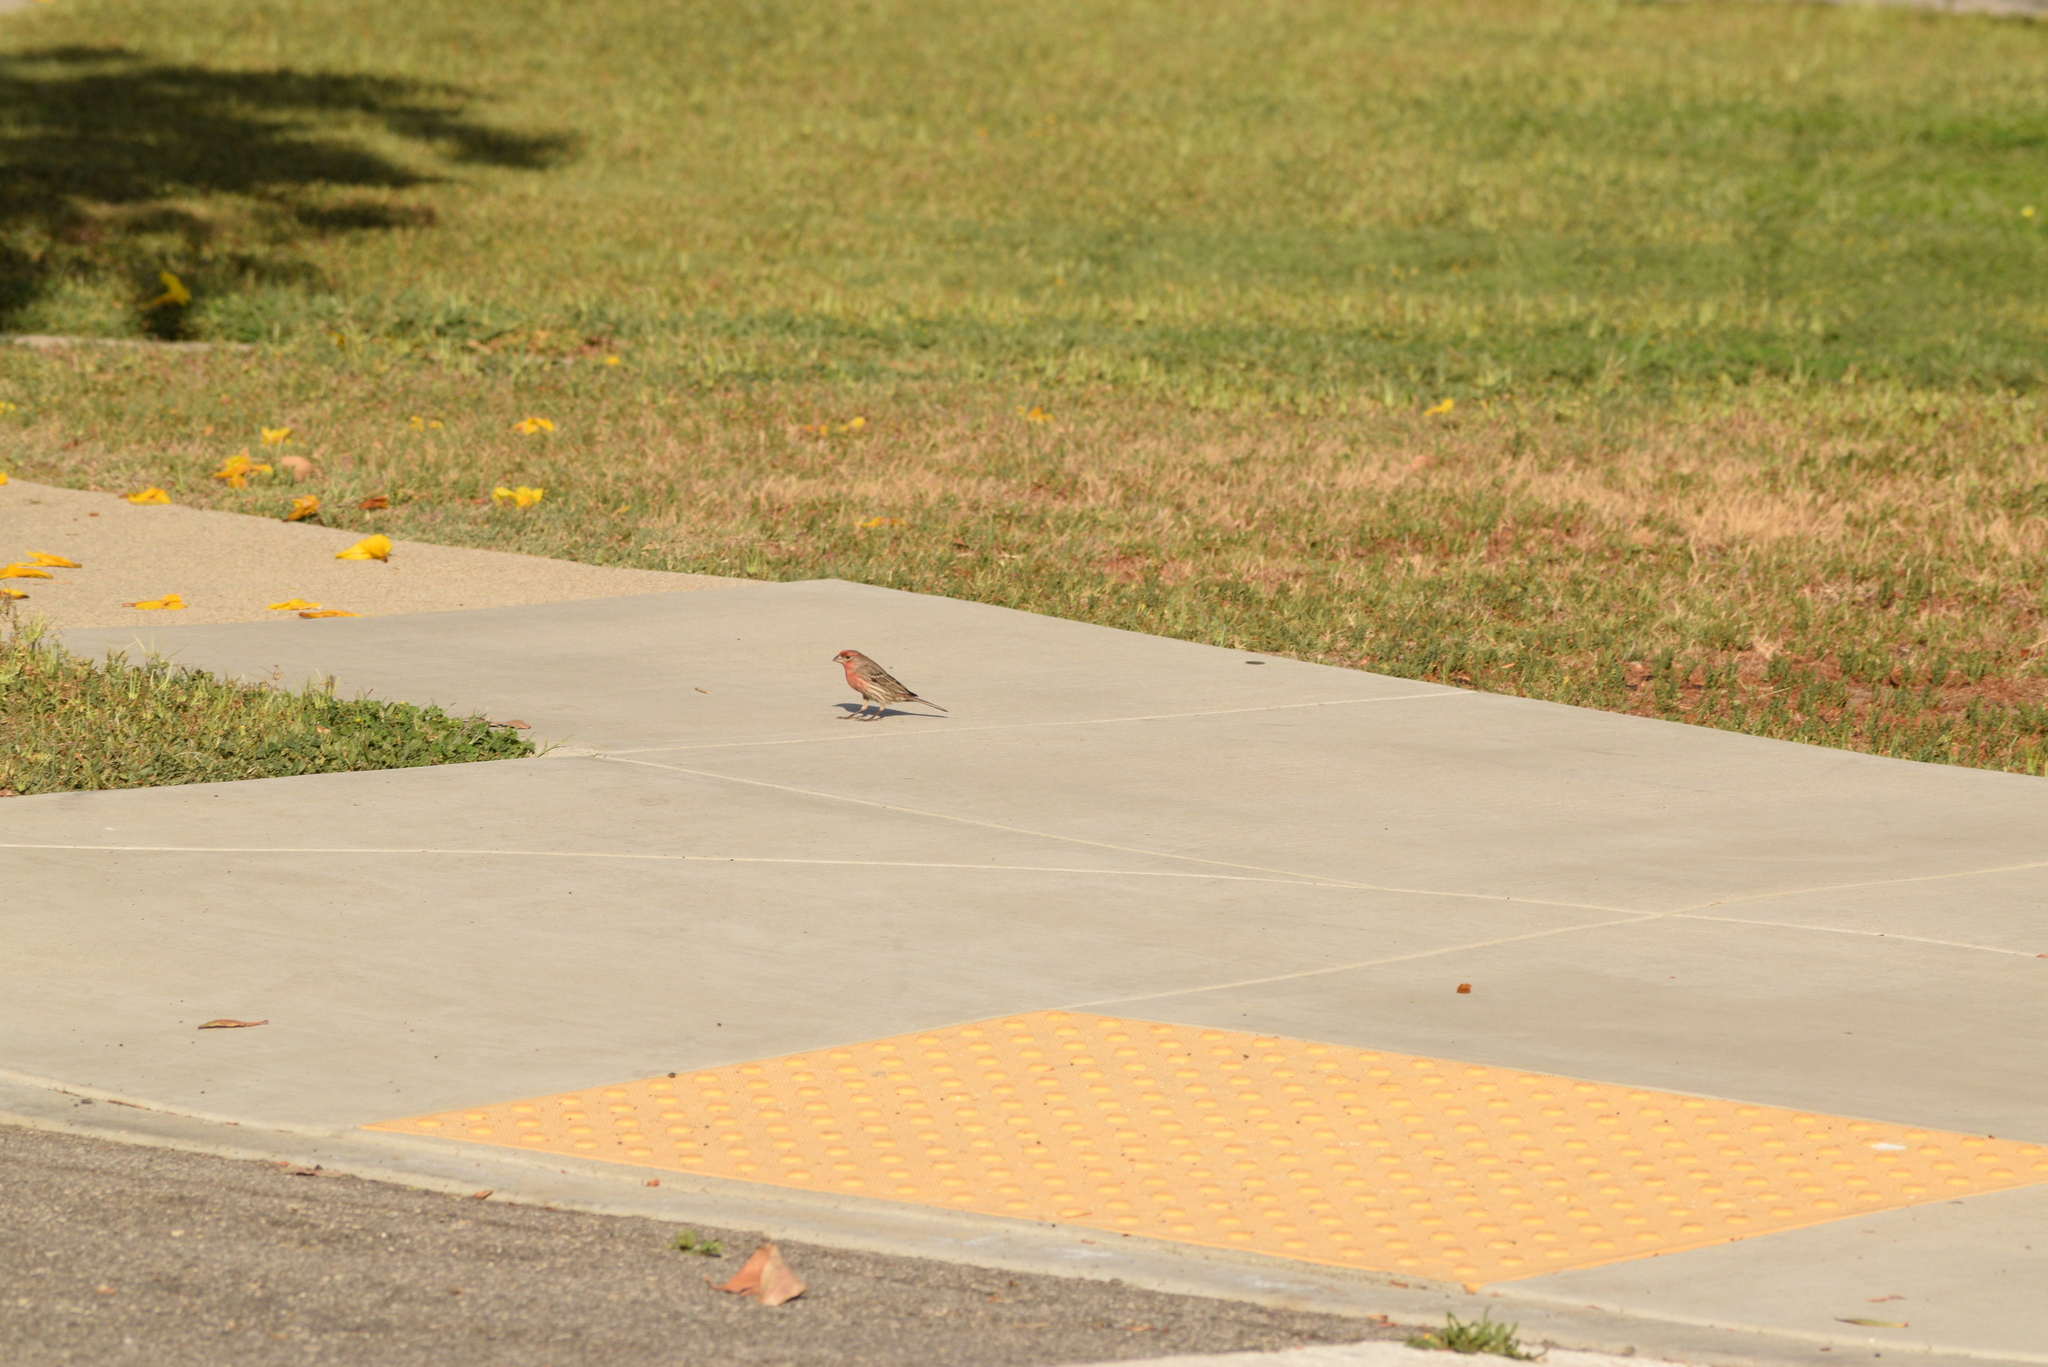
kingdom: Animalia
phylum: Chordata
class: Aves
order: Passeriformes
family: Fringillidae
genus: Haemorhous
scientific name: Haemorhous mexicanus
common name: House finch
